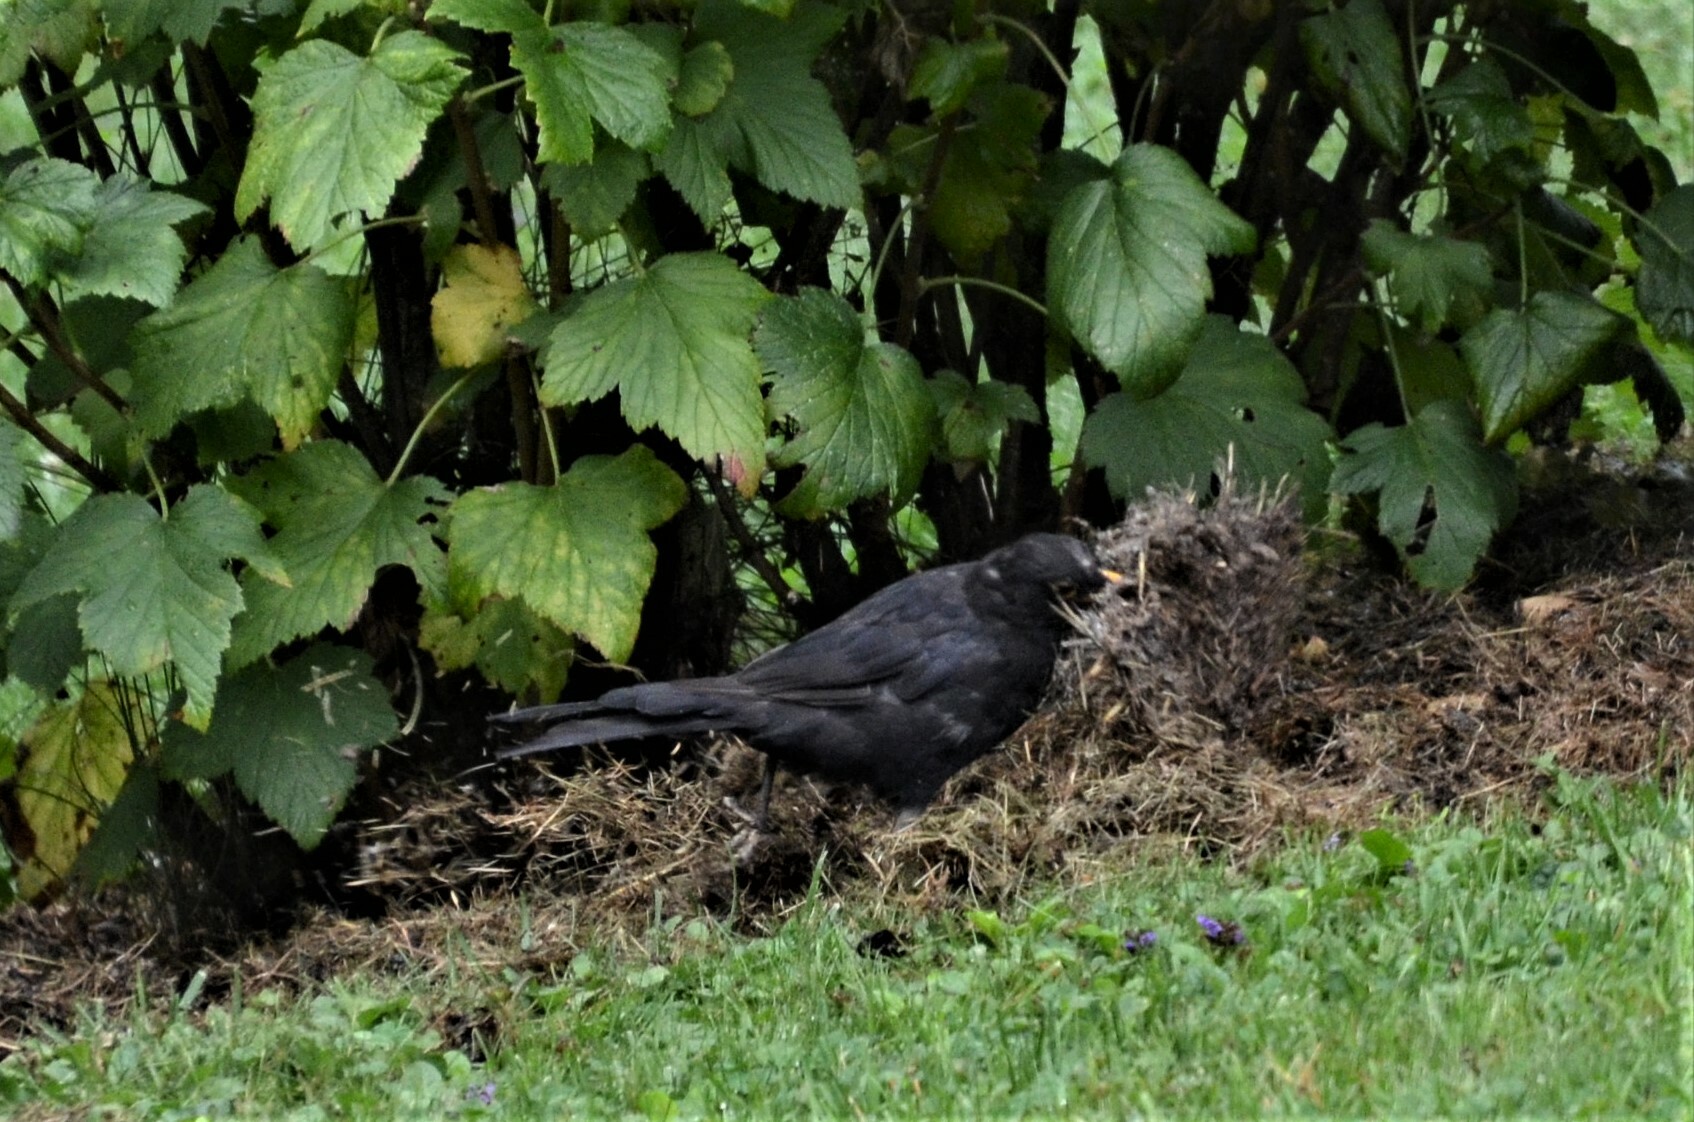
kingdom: Animalia
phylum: Chordata
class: Aves
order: Passeriformes
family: Turdidae
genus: Turdus
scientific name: Turdus merula
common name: Common blackbird
